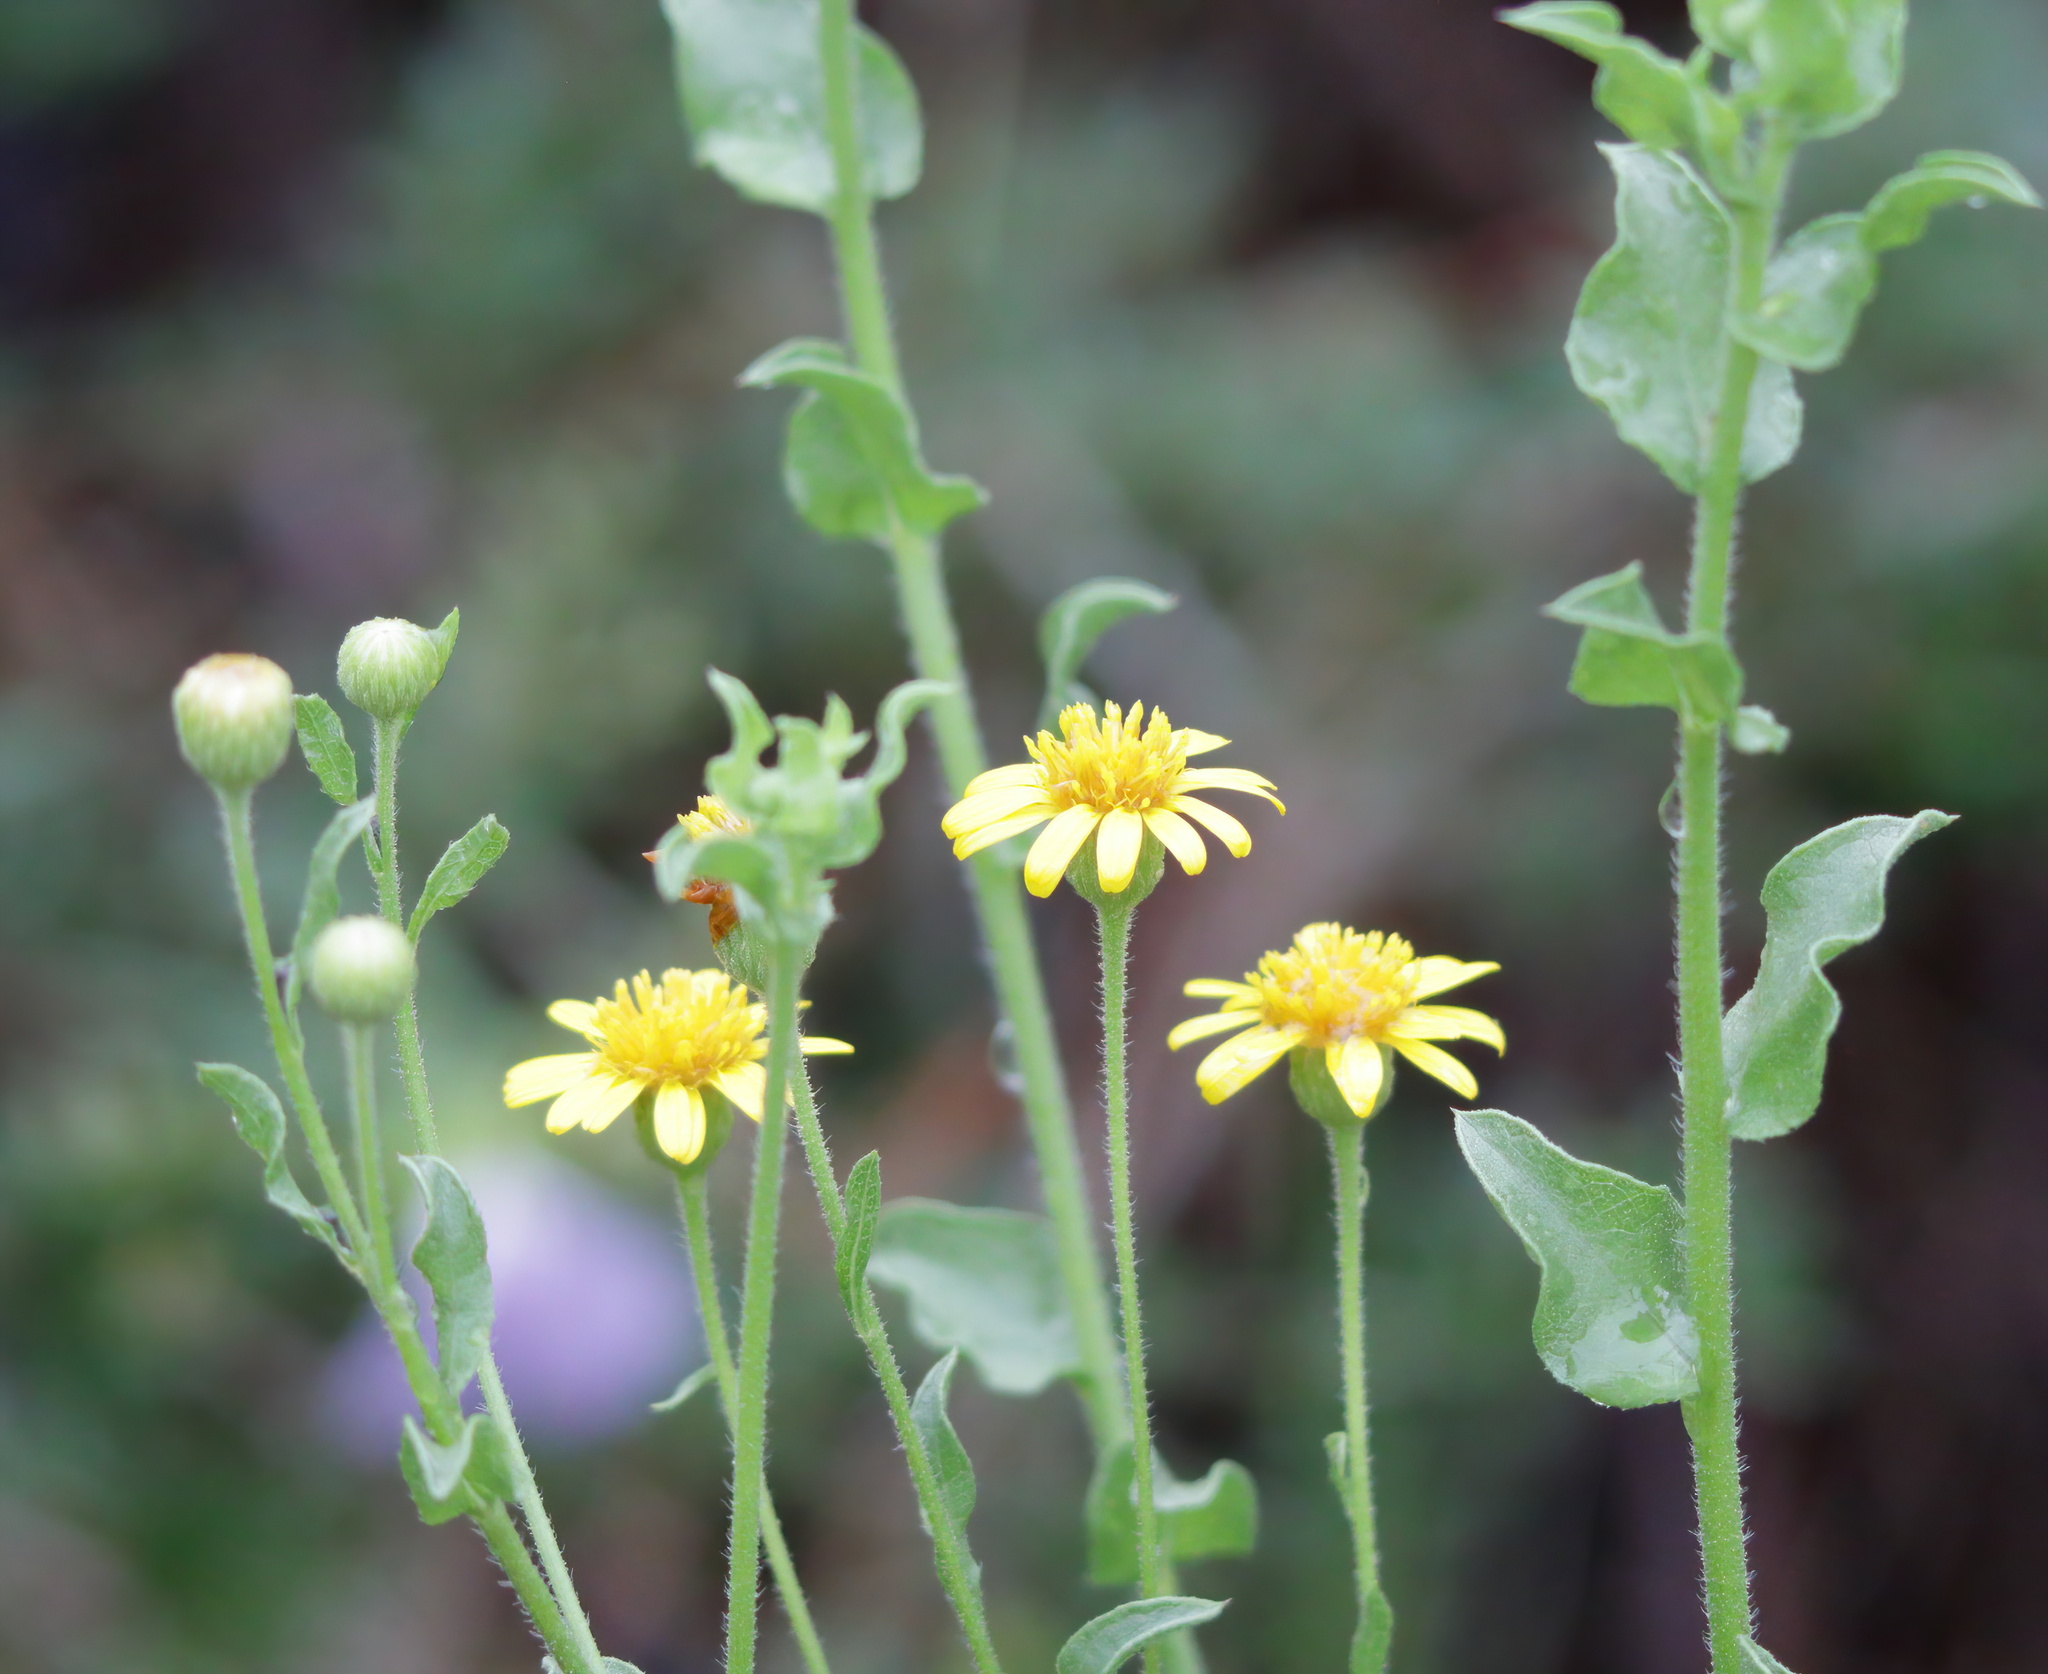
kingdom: Plantae
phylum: Tracheophyta
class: Magnoliopsida
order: Asterales
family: Asteraceae
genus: Heterotheca
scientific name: Heterotheca subaxillaris
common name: Camphorweed
